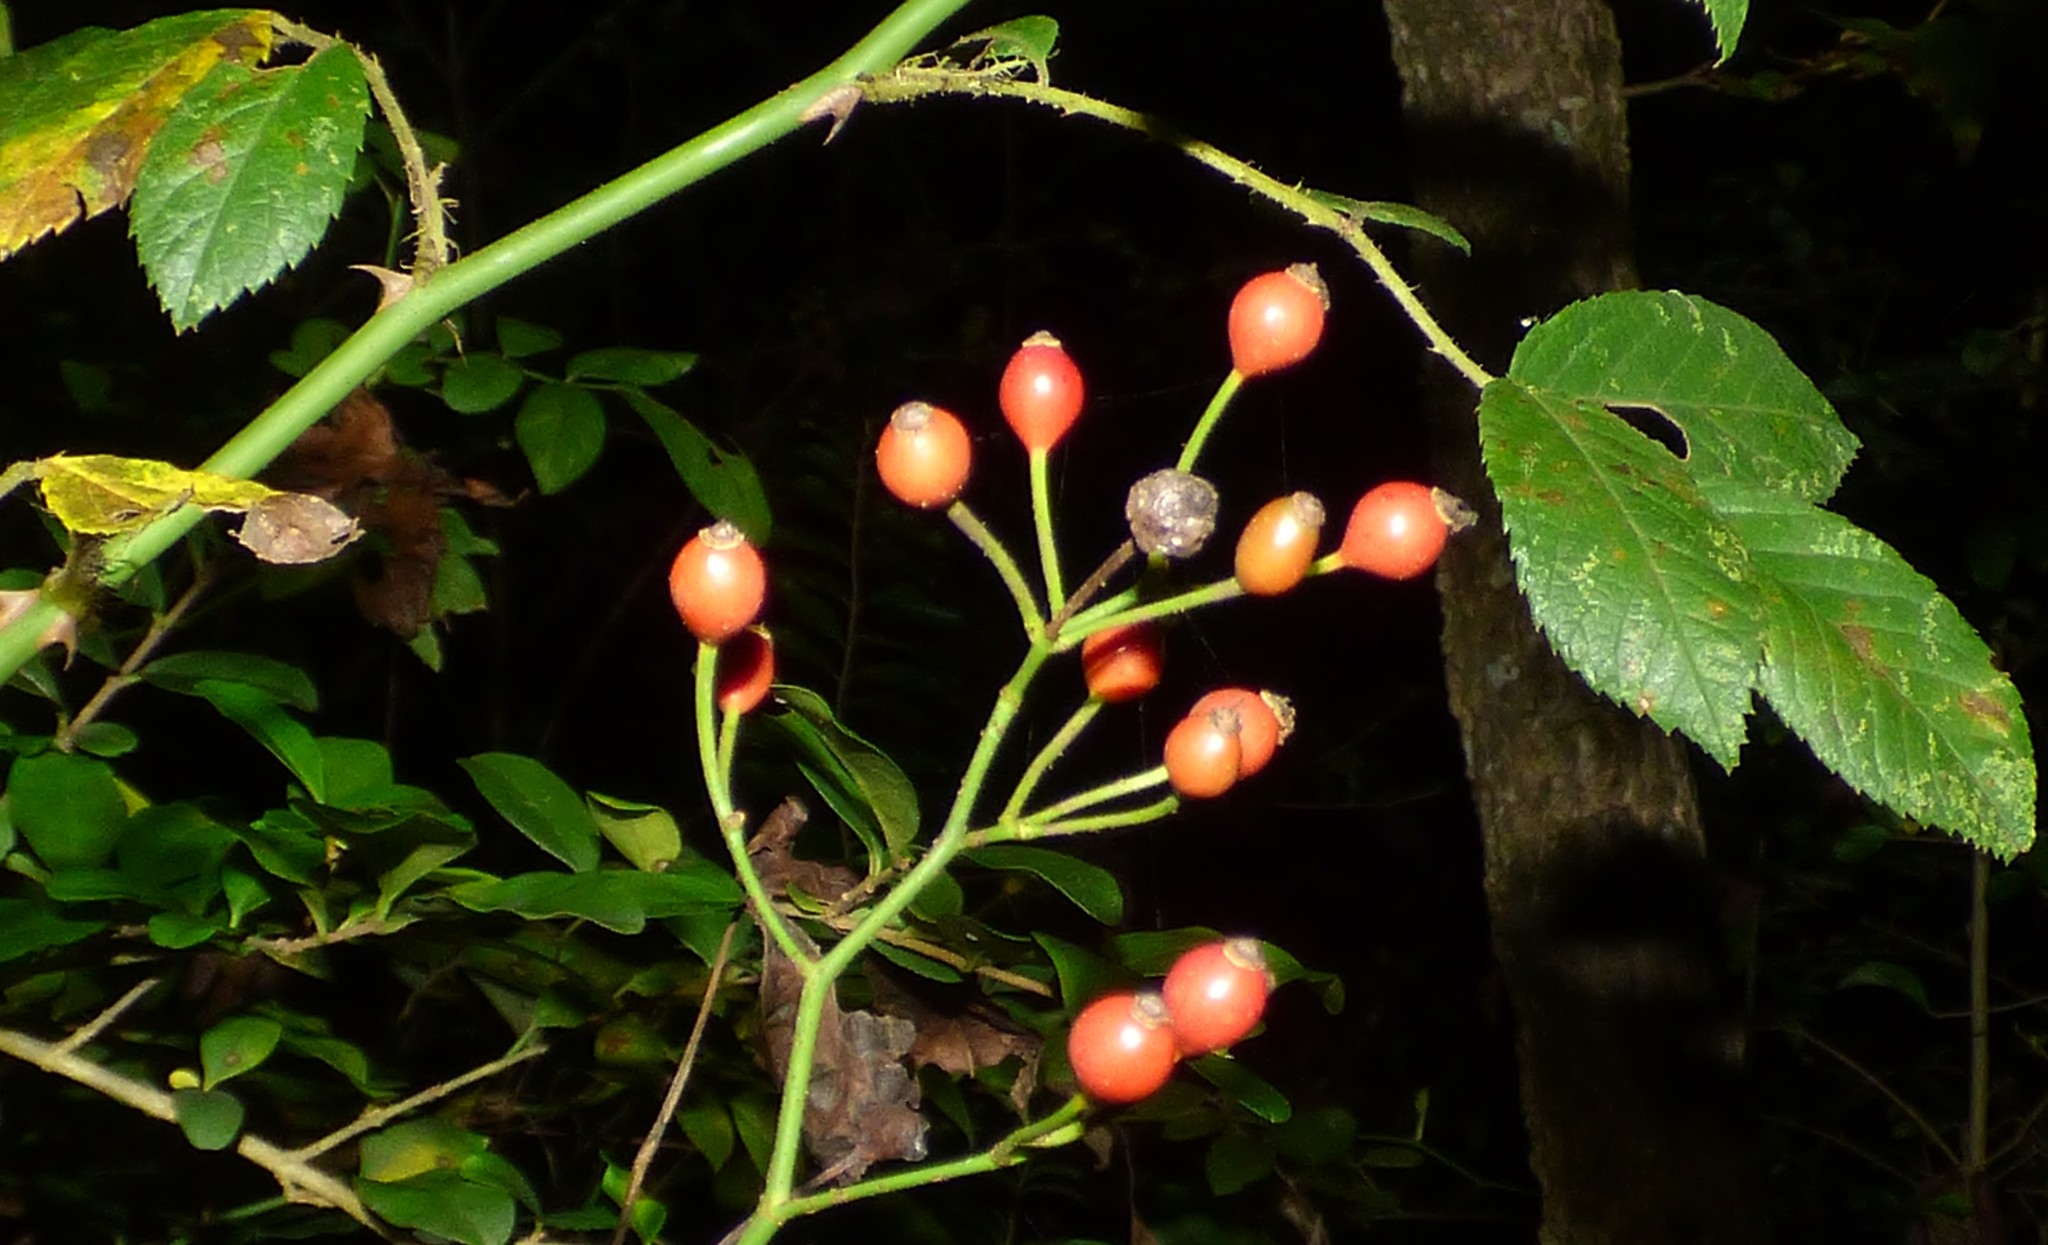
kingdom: Plantae
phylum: Tracheophyta
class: Magnoliopsida
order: Rosales
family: Rosaceae
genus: Rosa
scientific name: Rosa multiflora
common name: Multiflora rose
